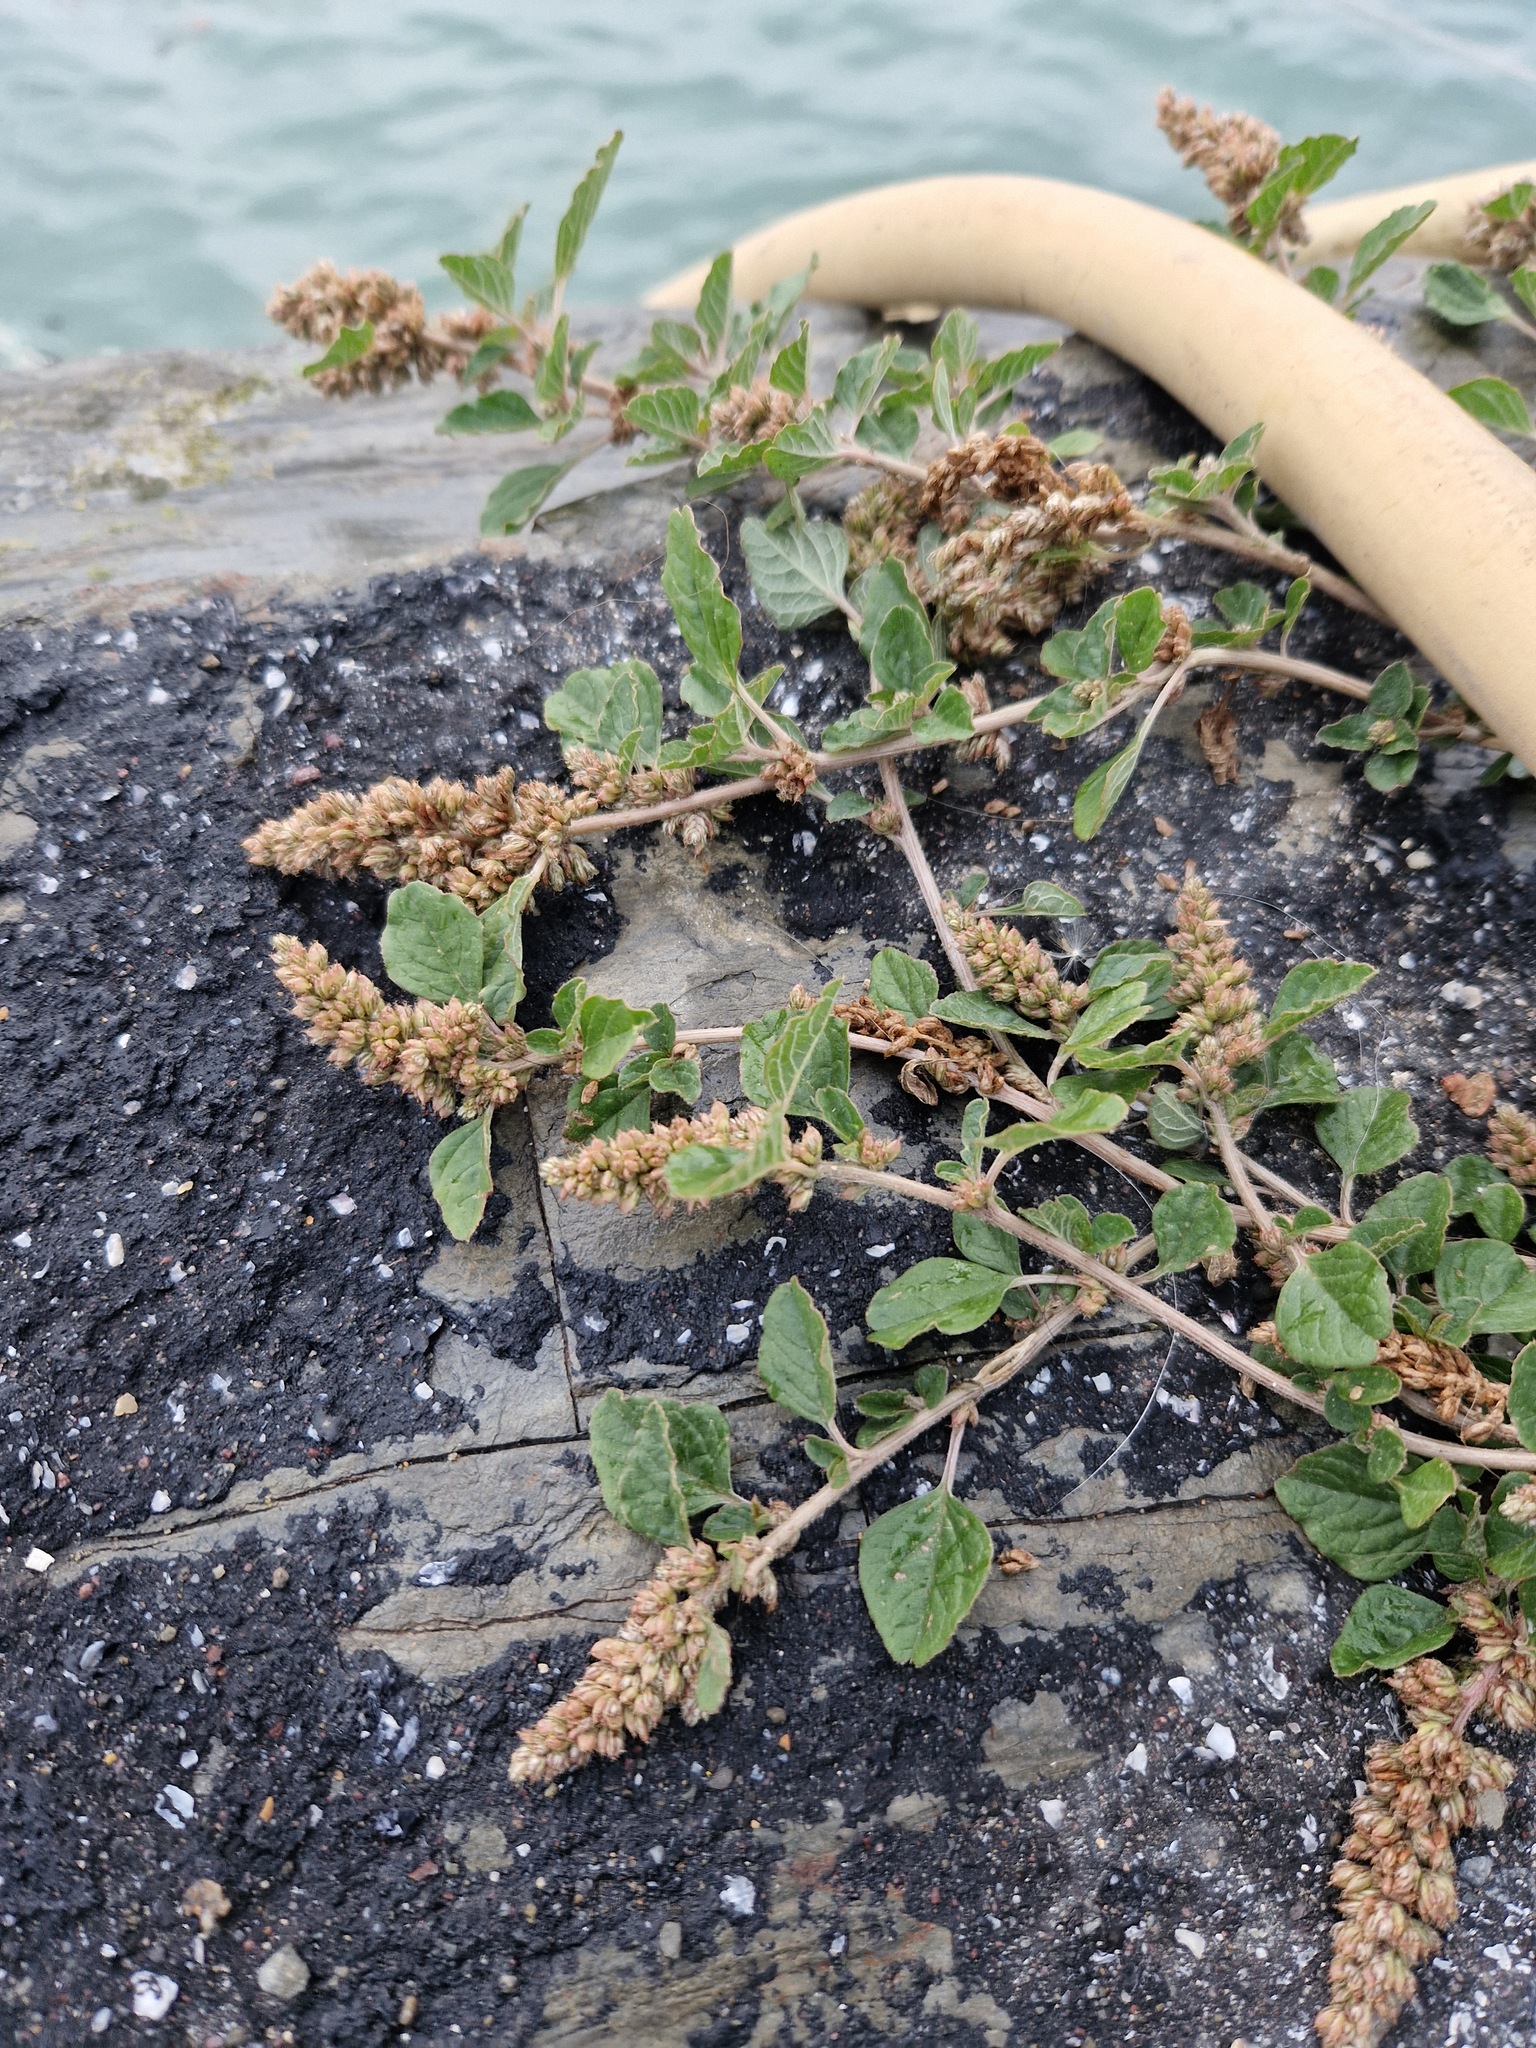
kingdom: Plantae
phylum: Tracheophyta
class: Magnoliopsida
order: Caryophyllales
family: Amaranthaceae
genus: Amaranthus
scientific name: Amaranthus deflexus
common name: Perennial pigweed
